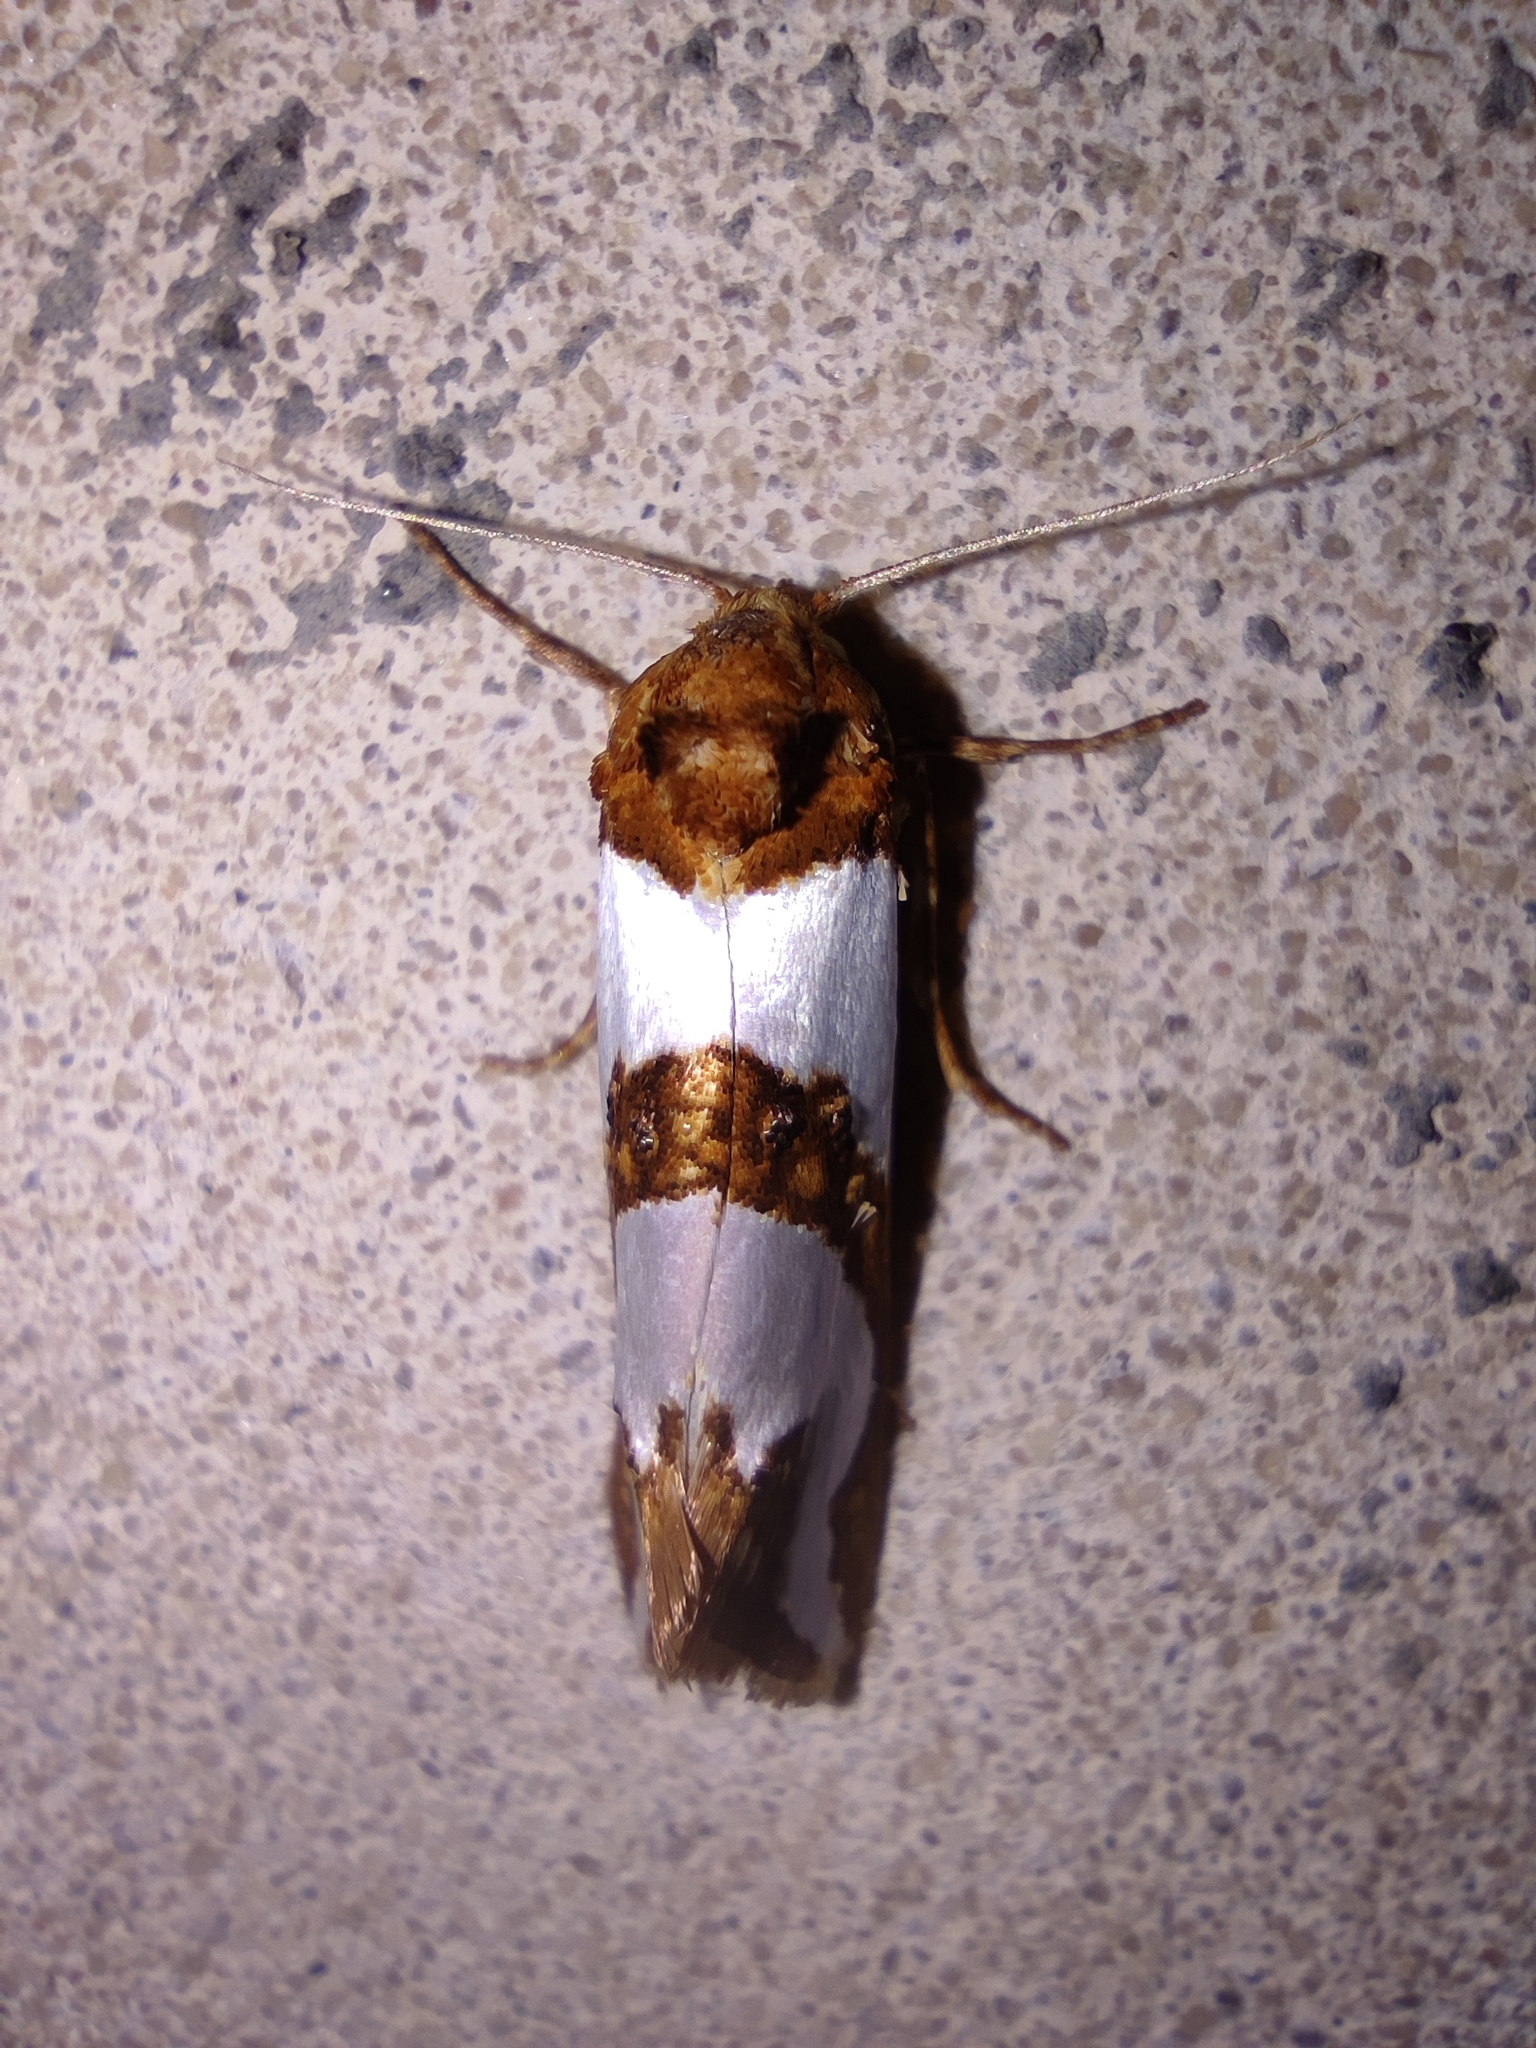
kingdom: Animalia
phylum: Arthropoda
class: Insecta
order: Lepidoptera
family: Tortricidae
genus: Eugnosta
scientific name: Eugnosta magnificana
